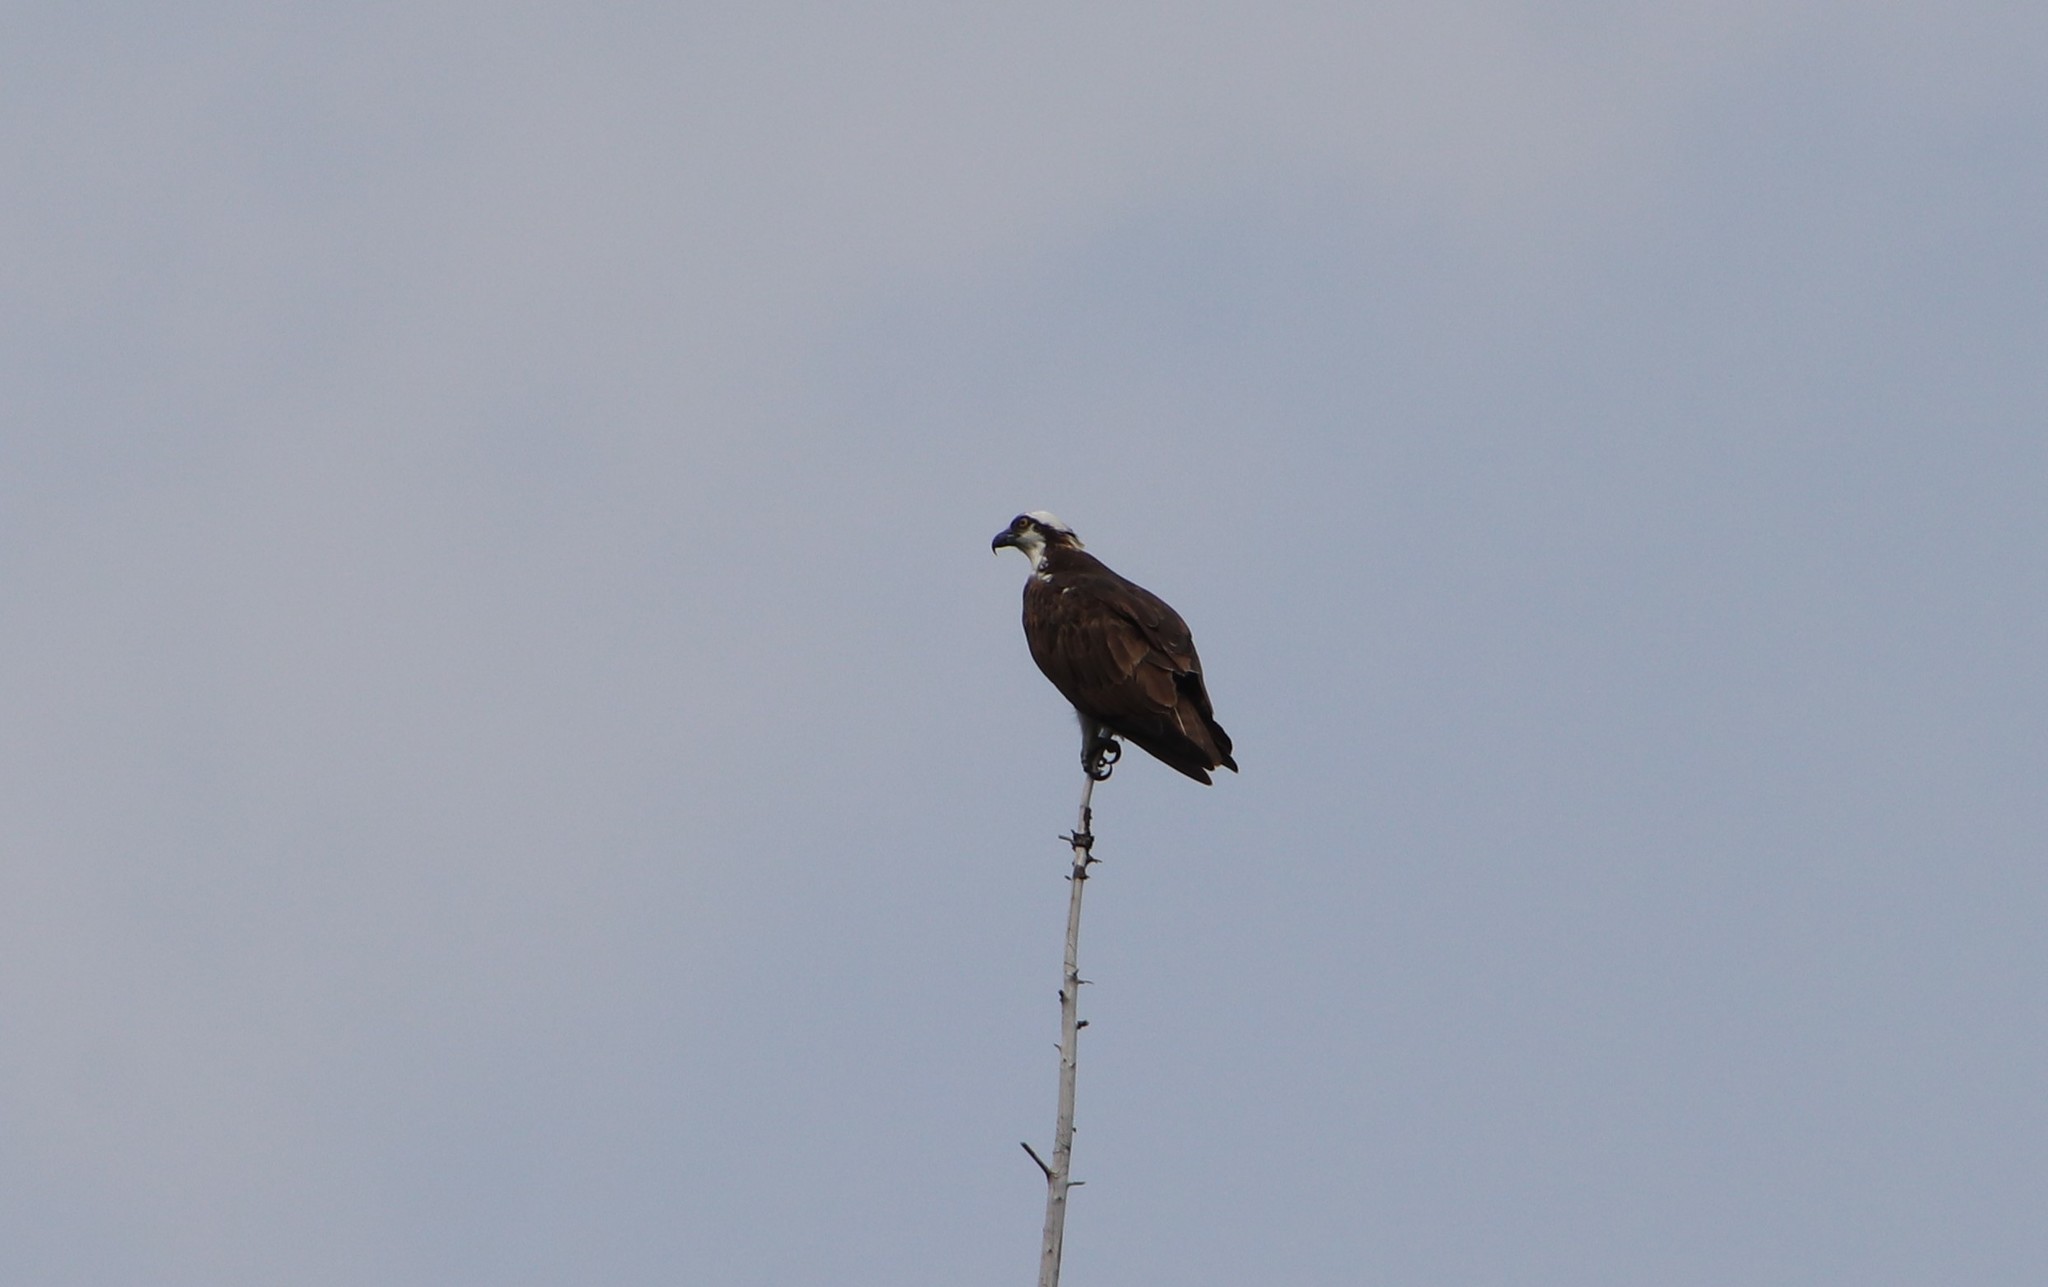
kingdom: Animalia
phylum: Chordata
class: Aves
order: Accipitriformes
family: Pandionidae
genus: Pandion
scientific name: Pandion haliaetus
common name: Osprey
